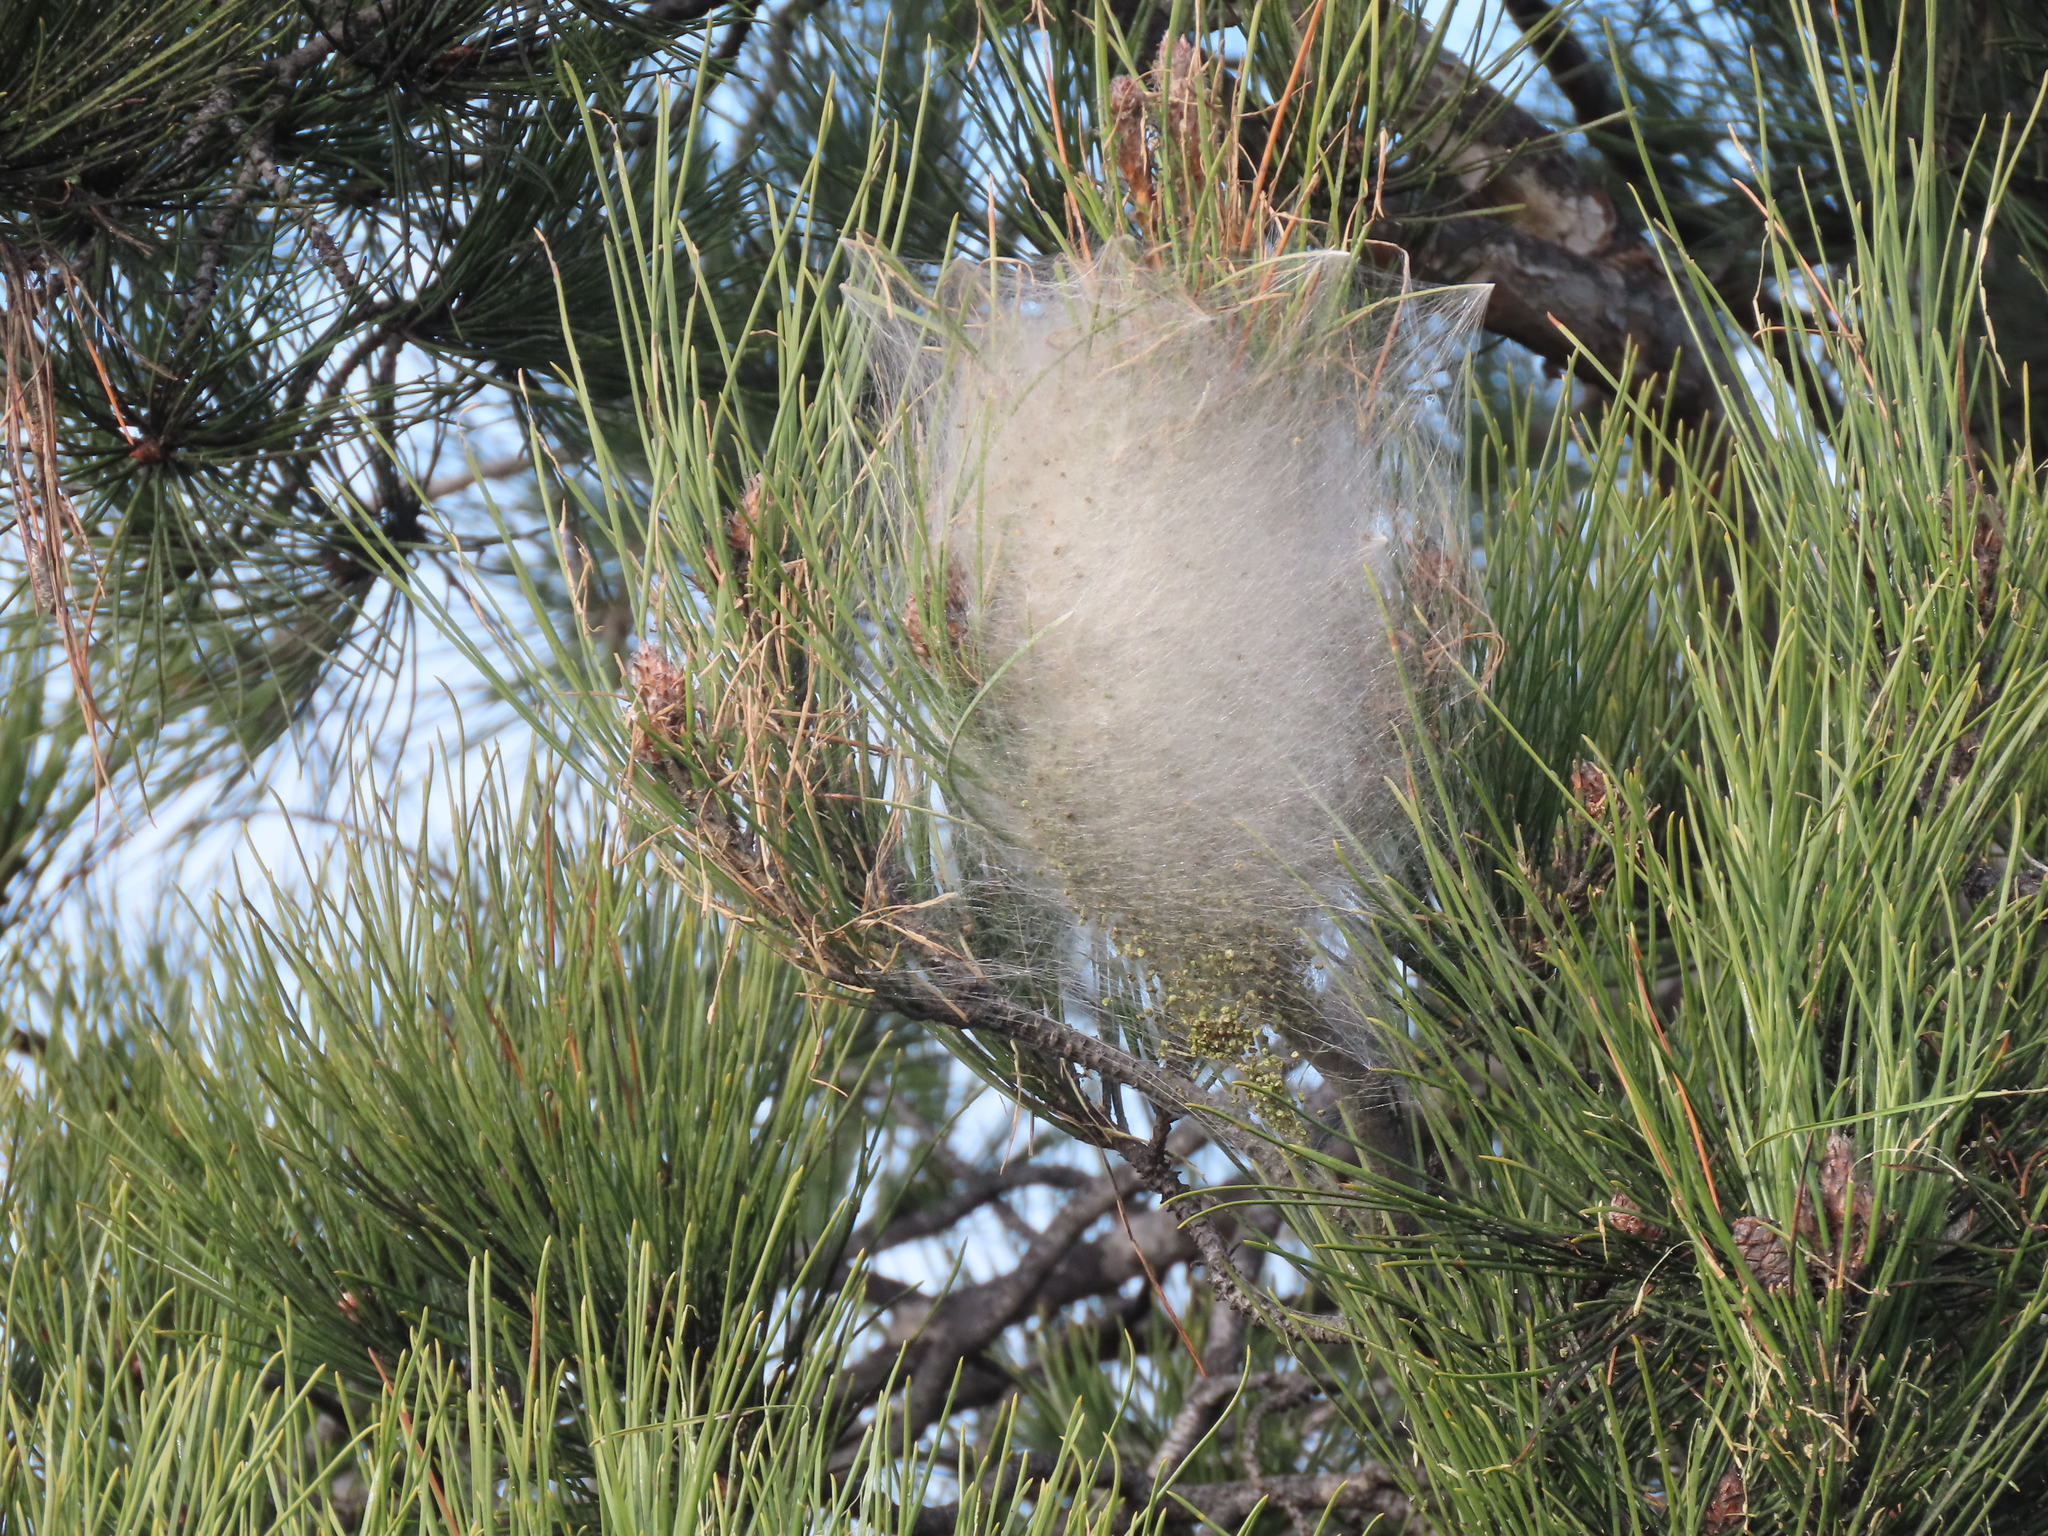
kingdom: Animalia
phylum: Arthropoda
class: Insecta
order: Lepidoptera
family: Notodontidae
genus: Thaumetopoea
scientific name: Thaumetopoea pityocampa
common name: Pine processionary
